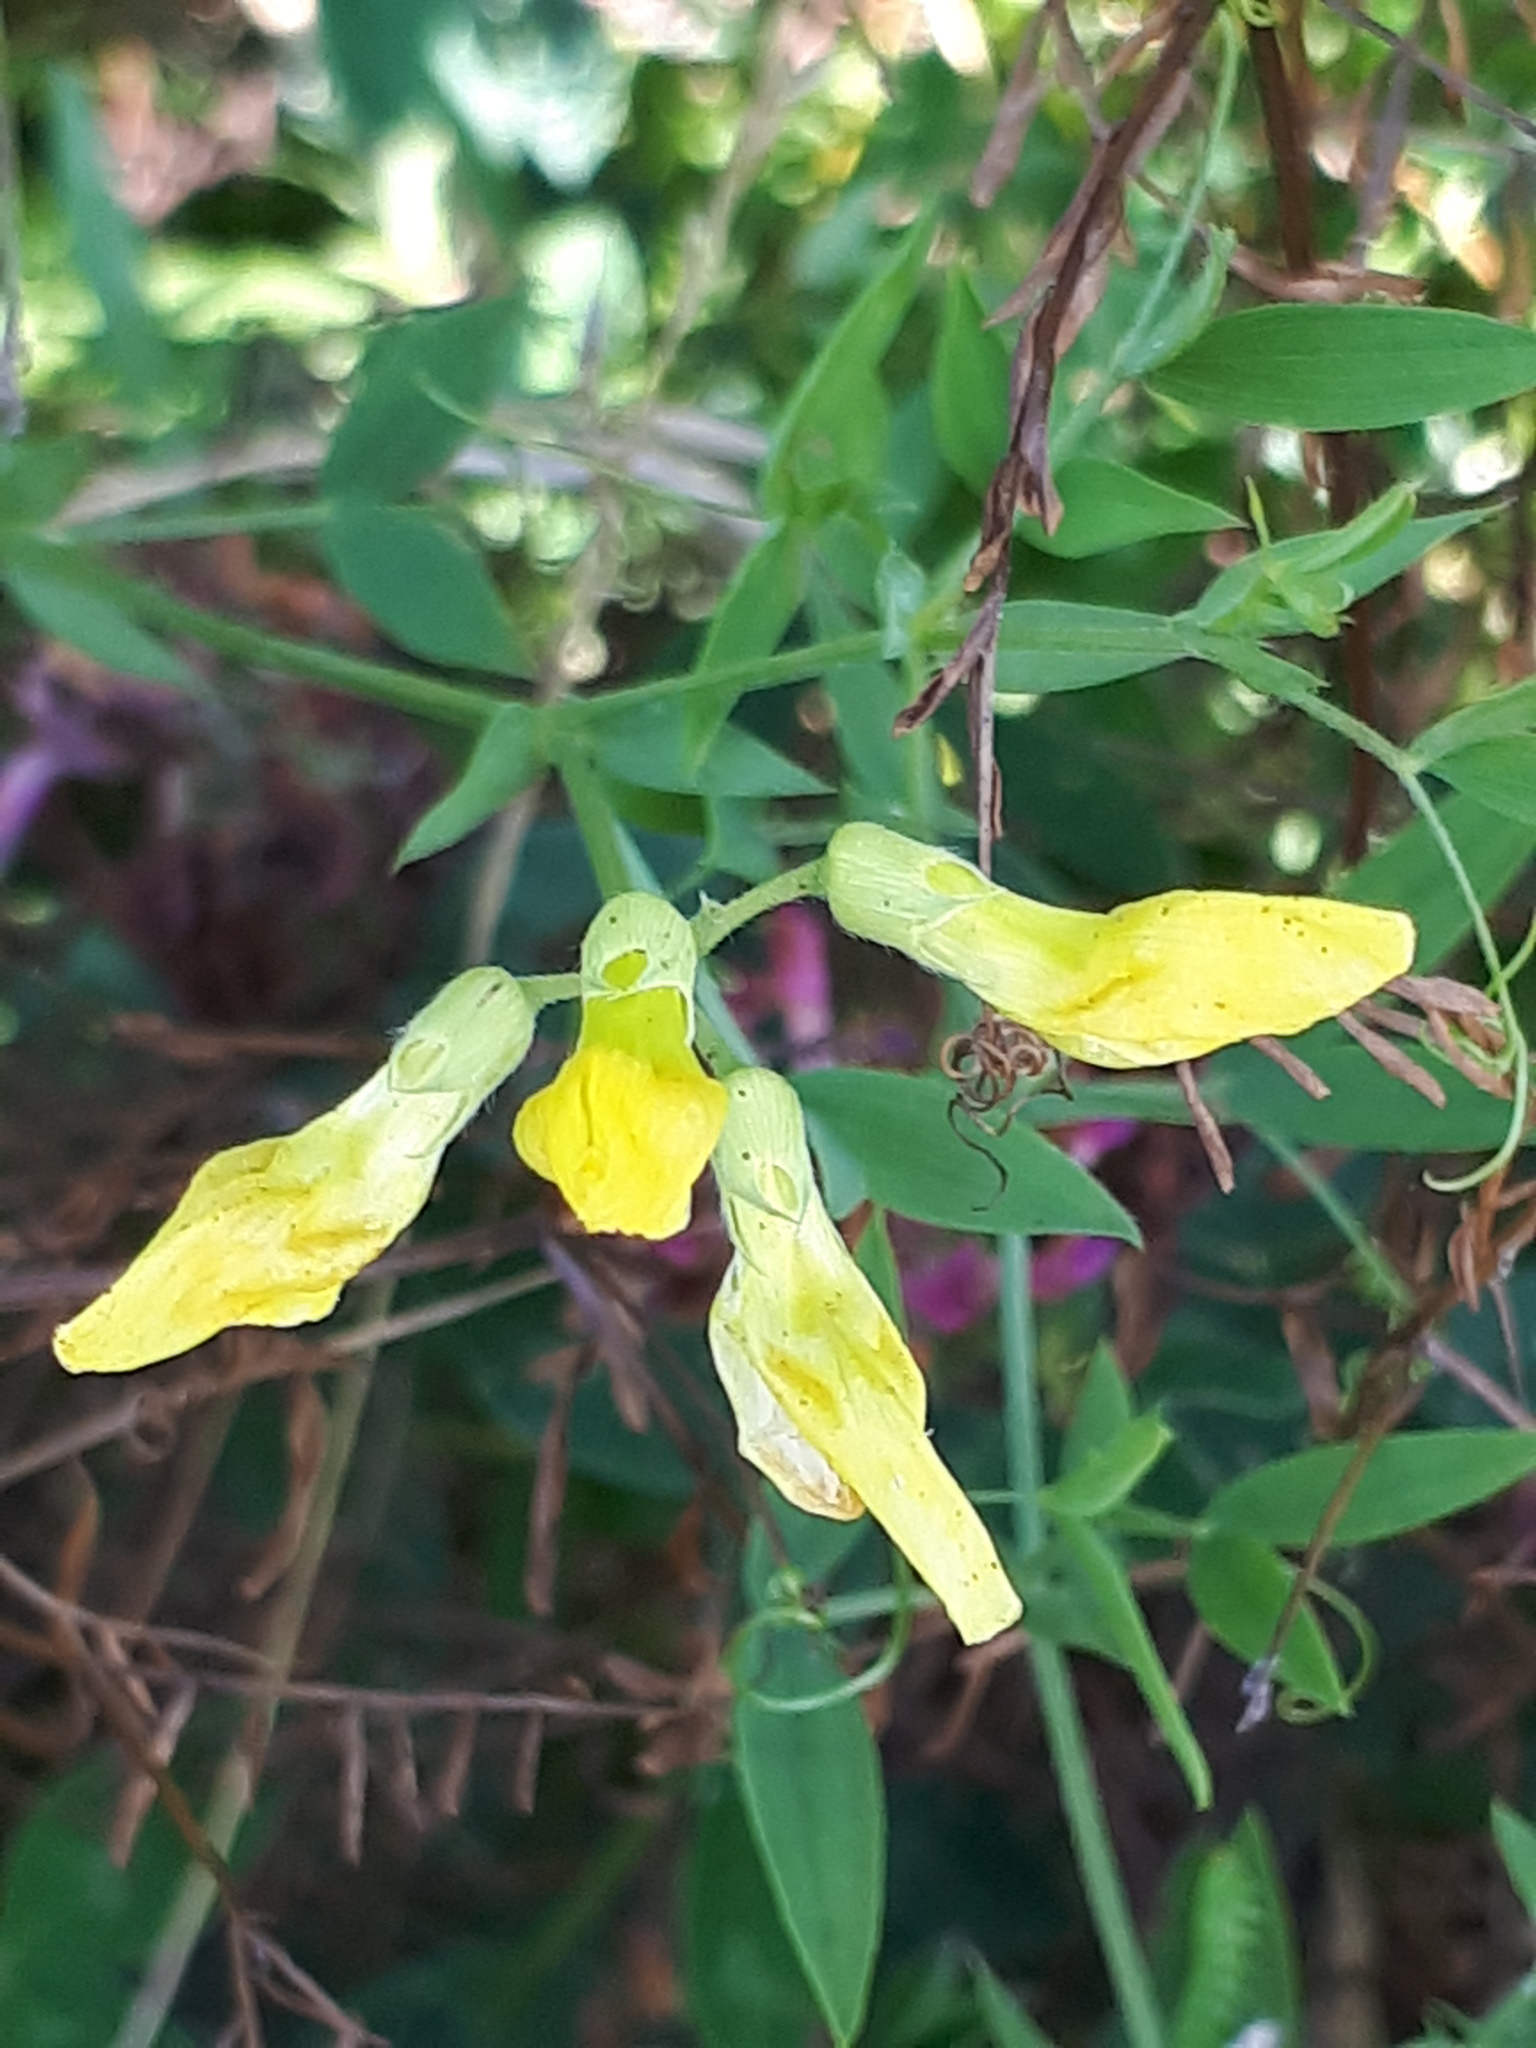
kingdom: Plantae
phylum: Tracheophyta
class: Magnoliopsida
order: Fabales
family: Fabaceae
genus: Lathyrus
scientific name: Lathyrus pratensis
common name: Meadow vetchling
